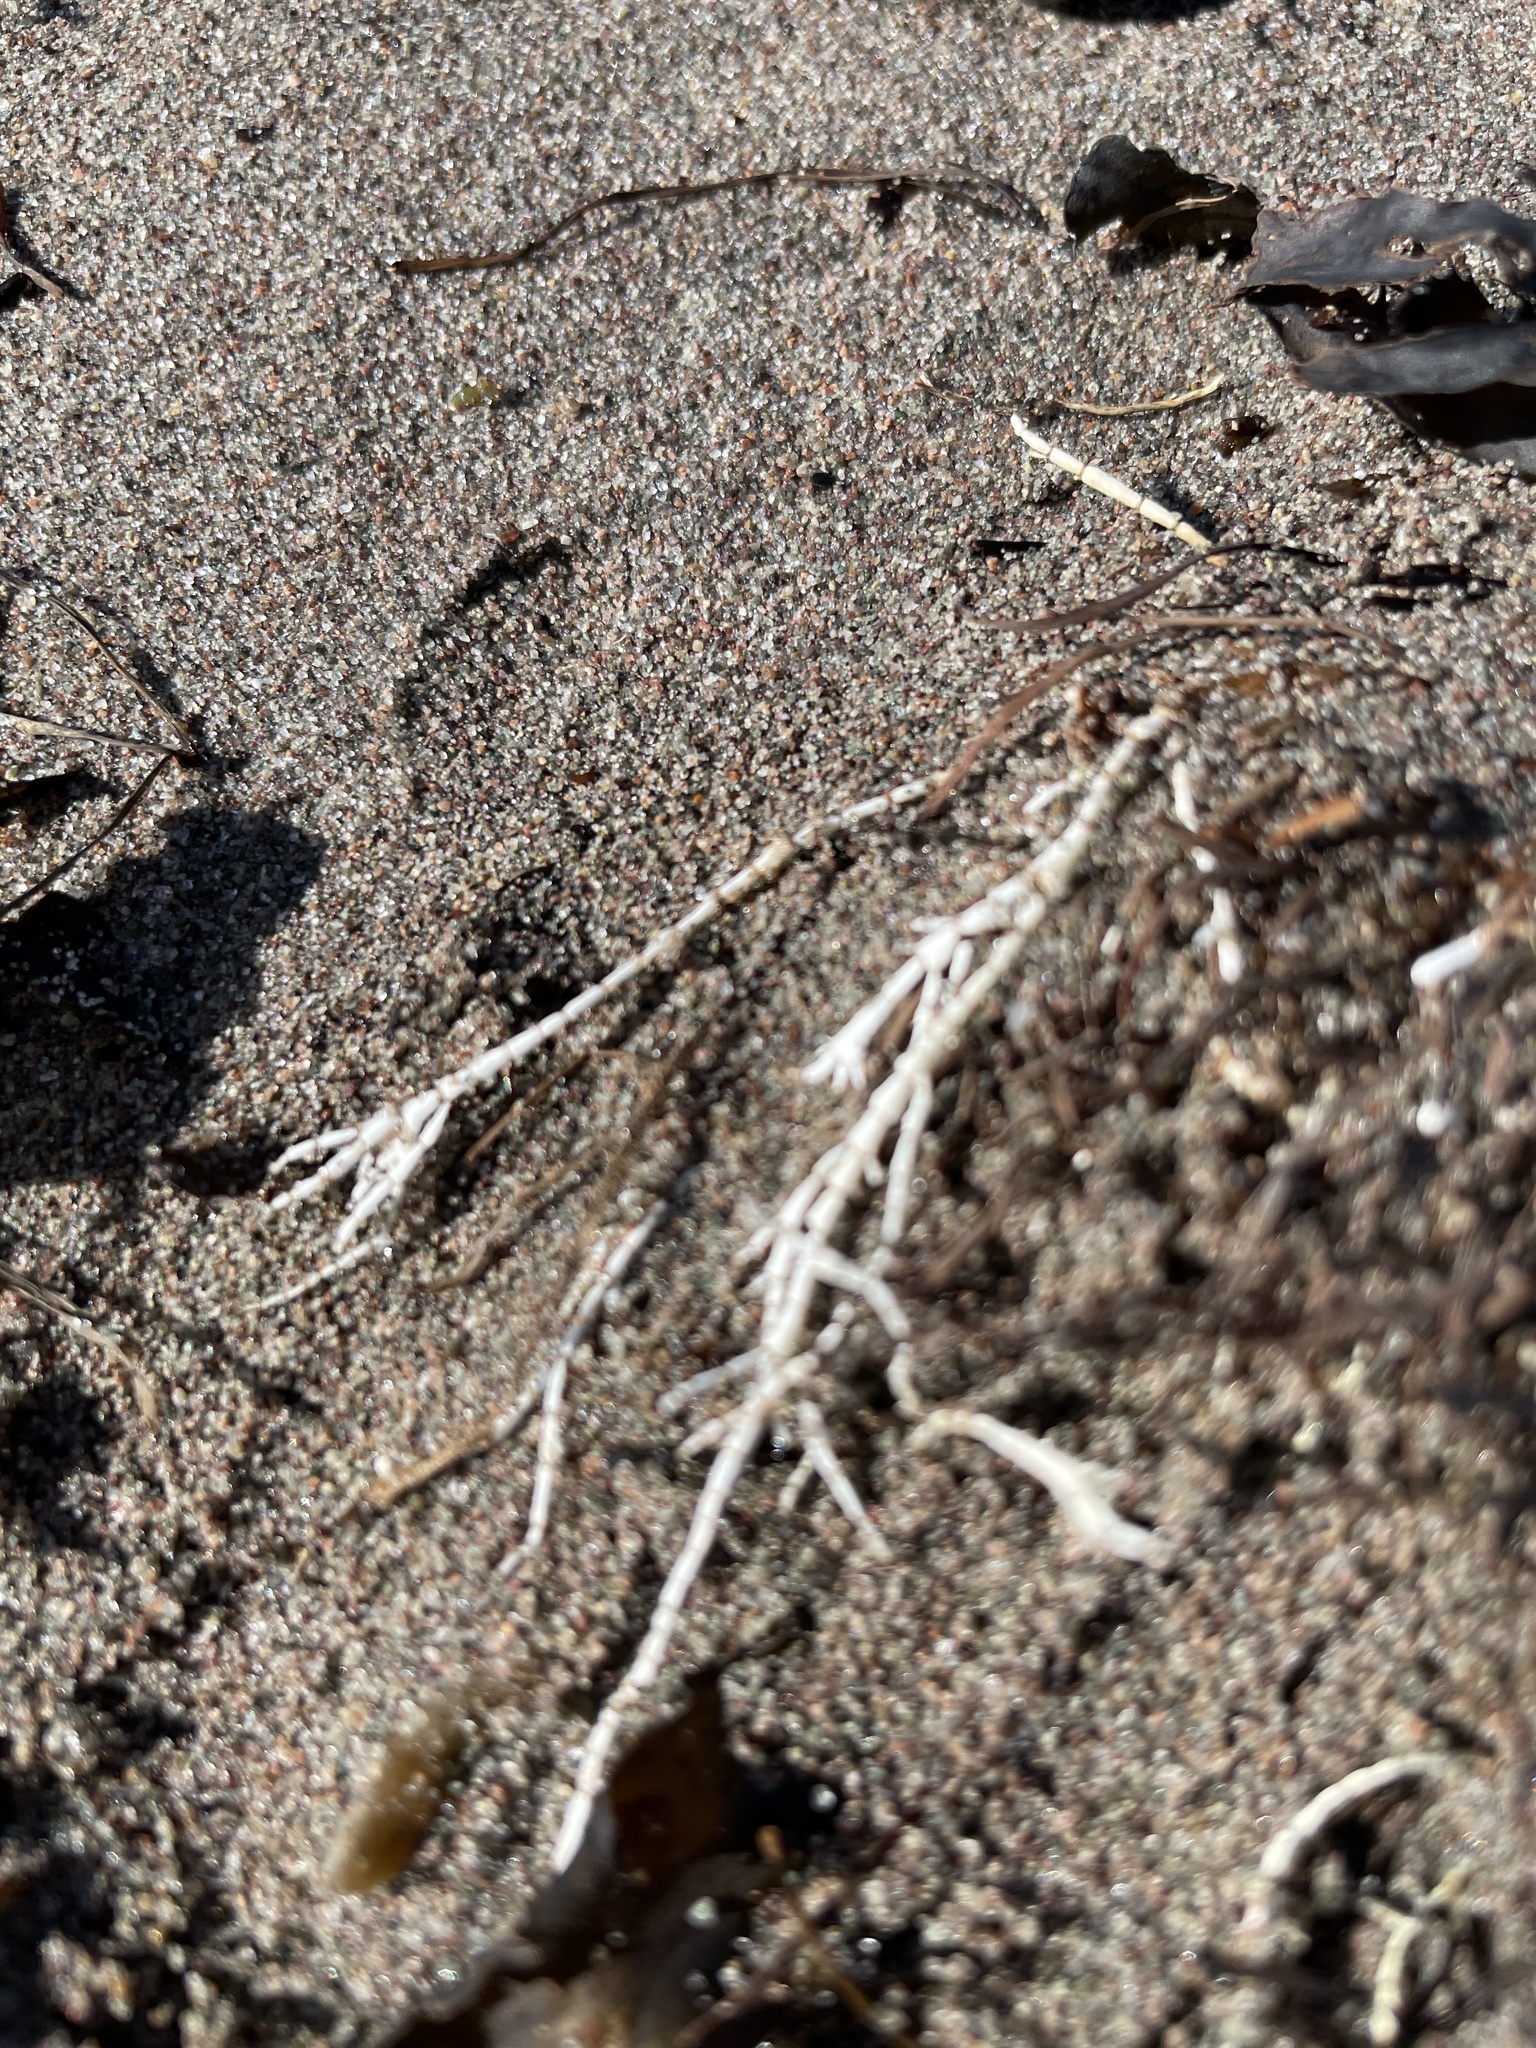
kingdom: Plantae
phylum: Rhodophyta
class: Florideophyceae
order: Corallinales
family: Corallinaceae
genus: Corallina
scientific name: Corallina officinalis
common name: Coral weed
